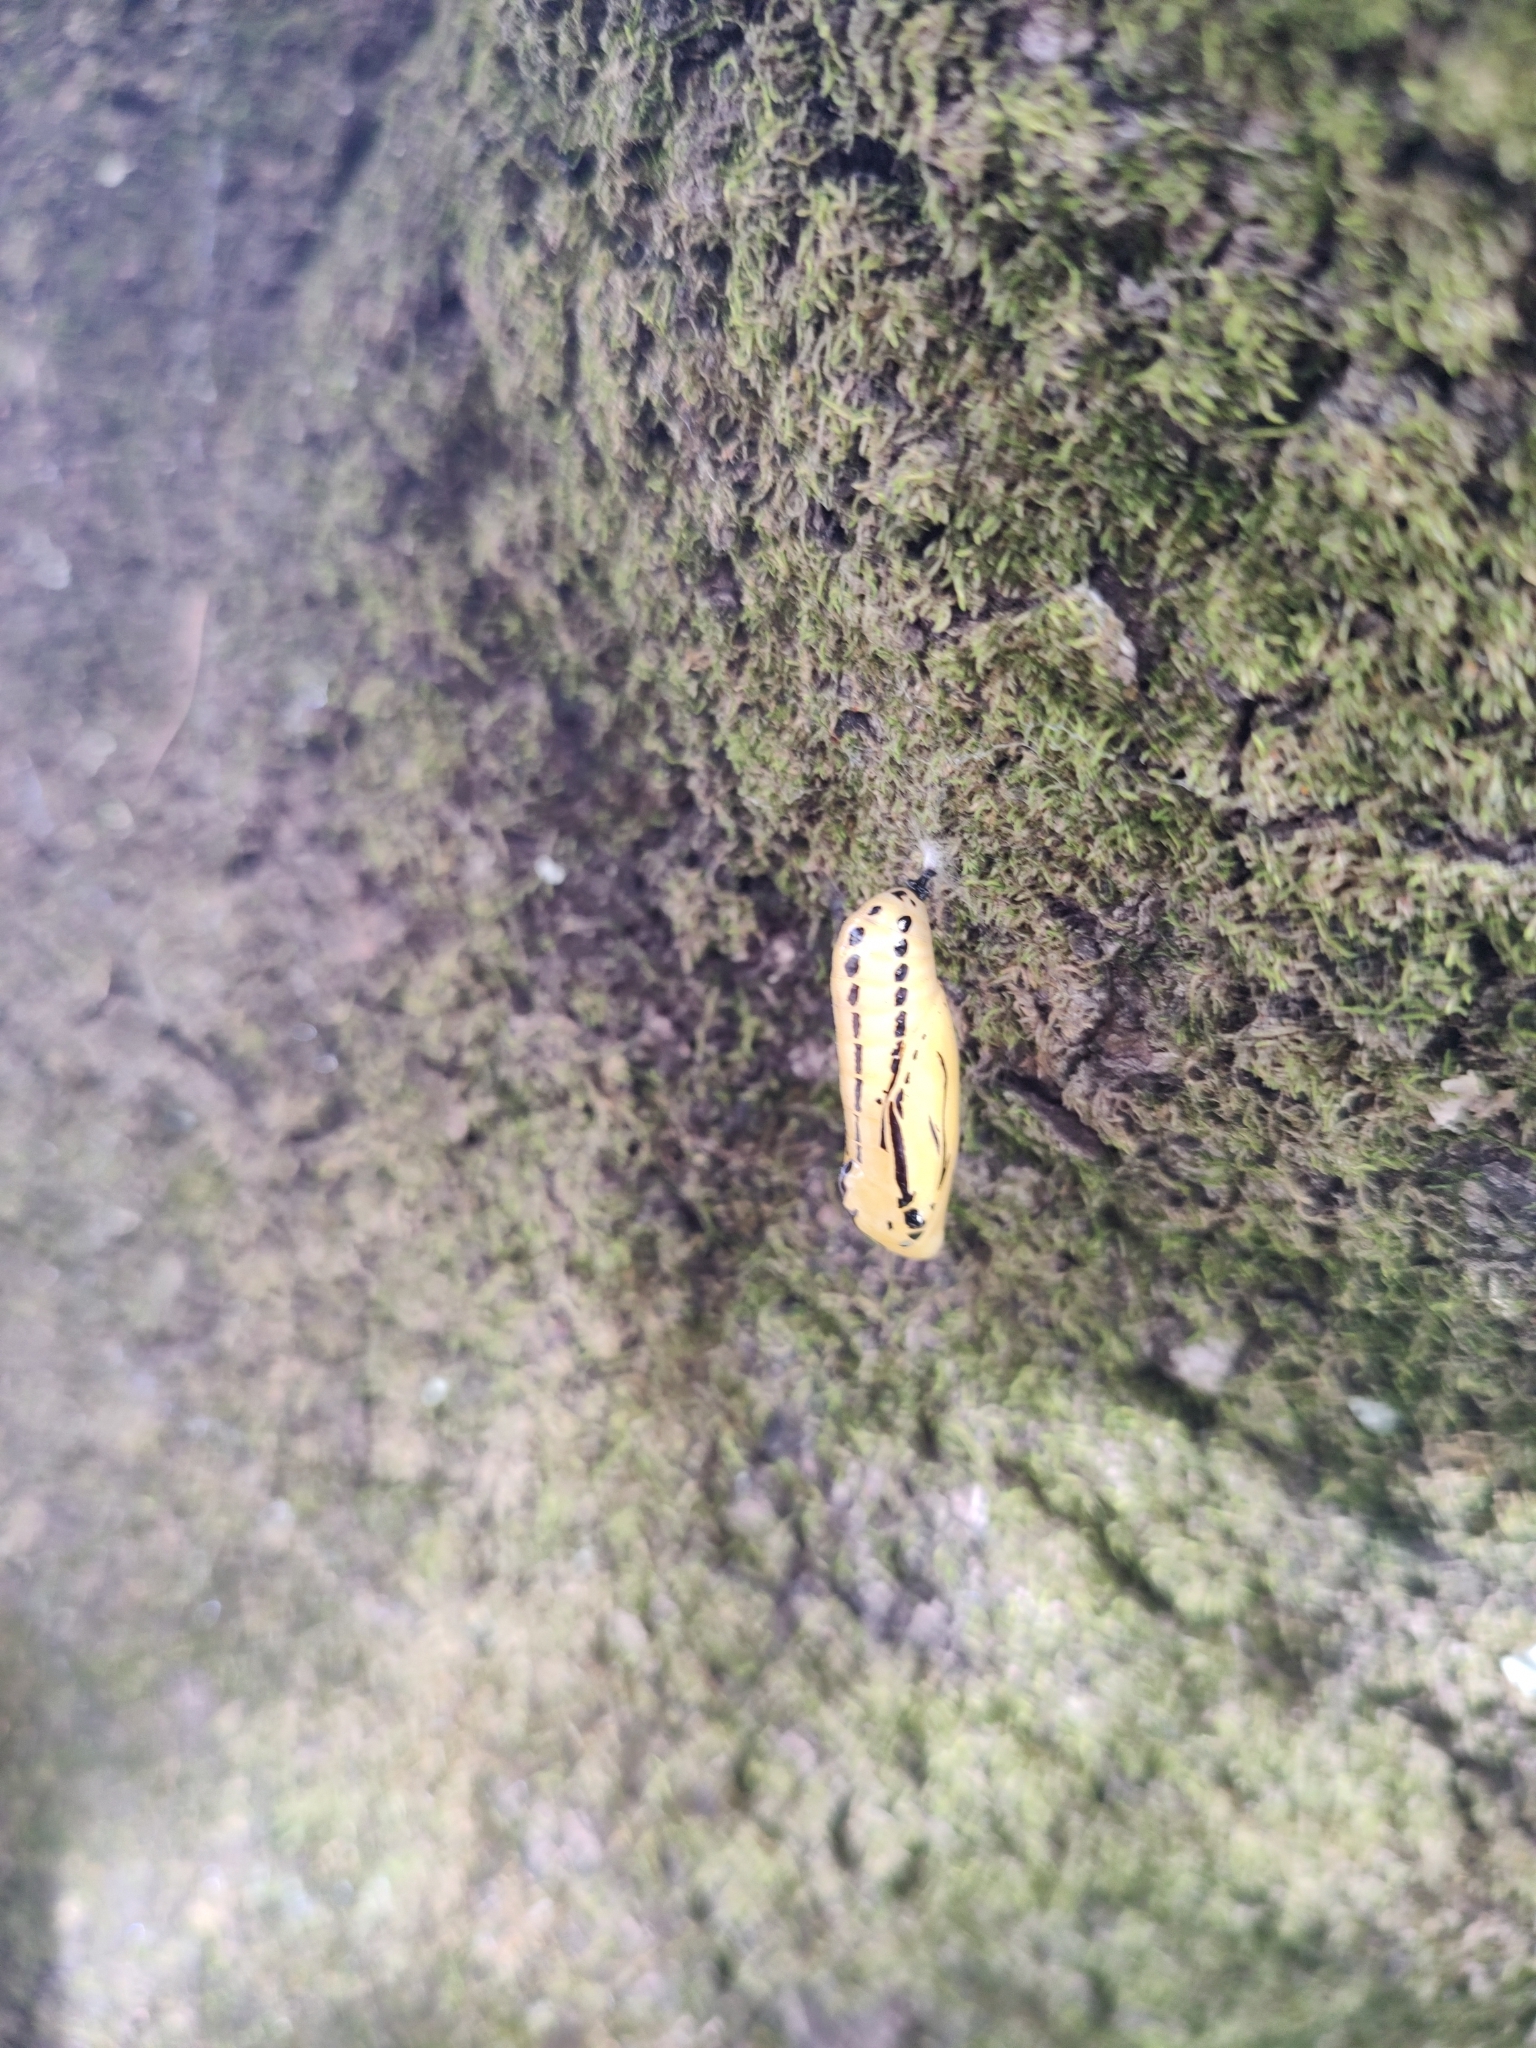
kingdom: Animalia
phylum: Arthropoda
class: Insecta
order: Lepidoptera
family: Nymphalidae
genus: Methona
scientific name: Methona themisto
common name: Themisto amberwing
